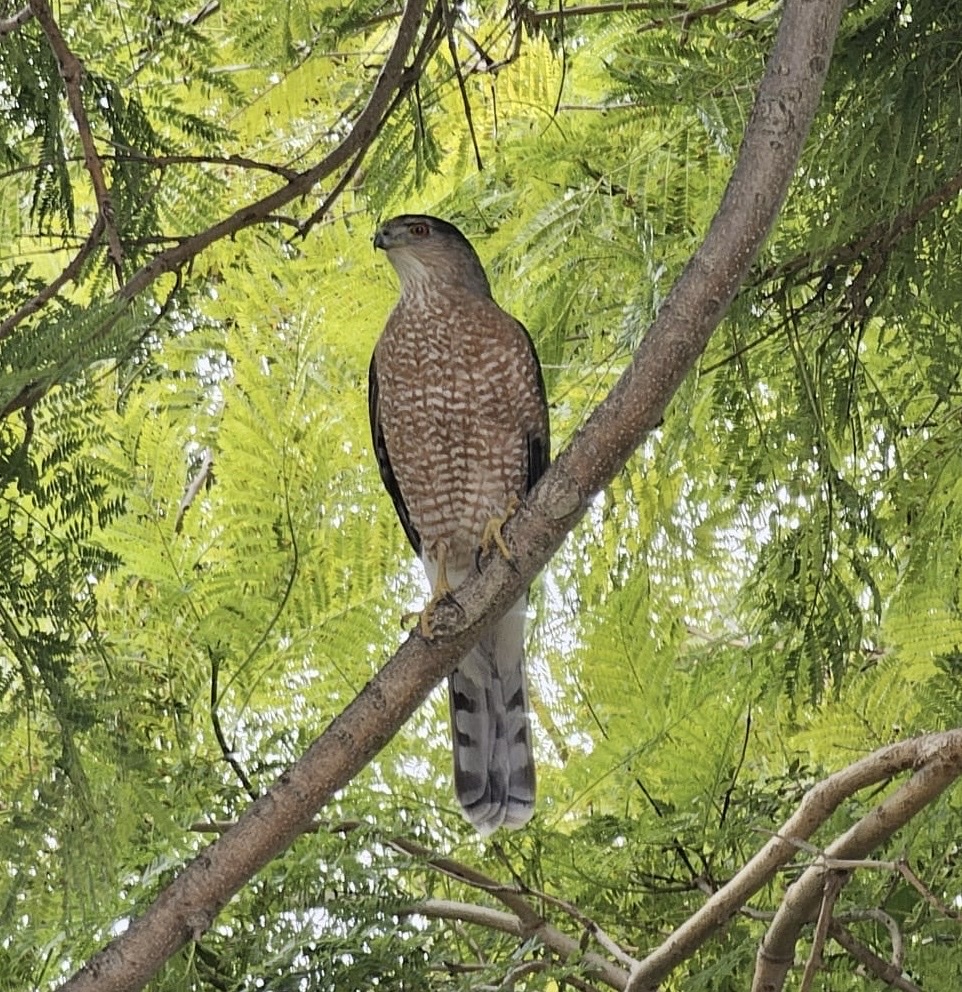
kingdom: Animalia
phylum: Chordata
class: Aves
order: Accipitriformes
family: Accipitridae
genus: Accipiter
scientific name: Accipiter cooperii
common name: Cooper's hawk
